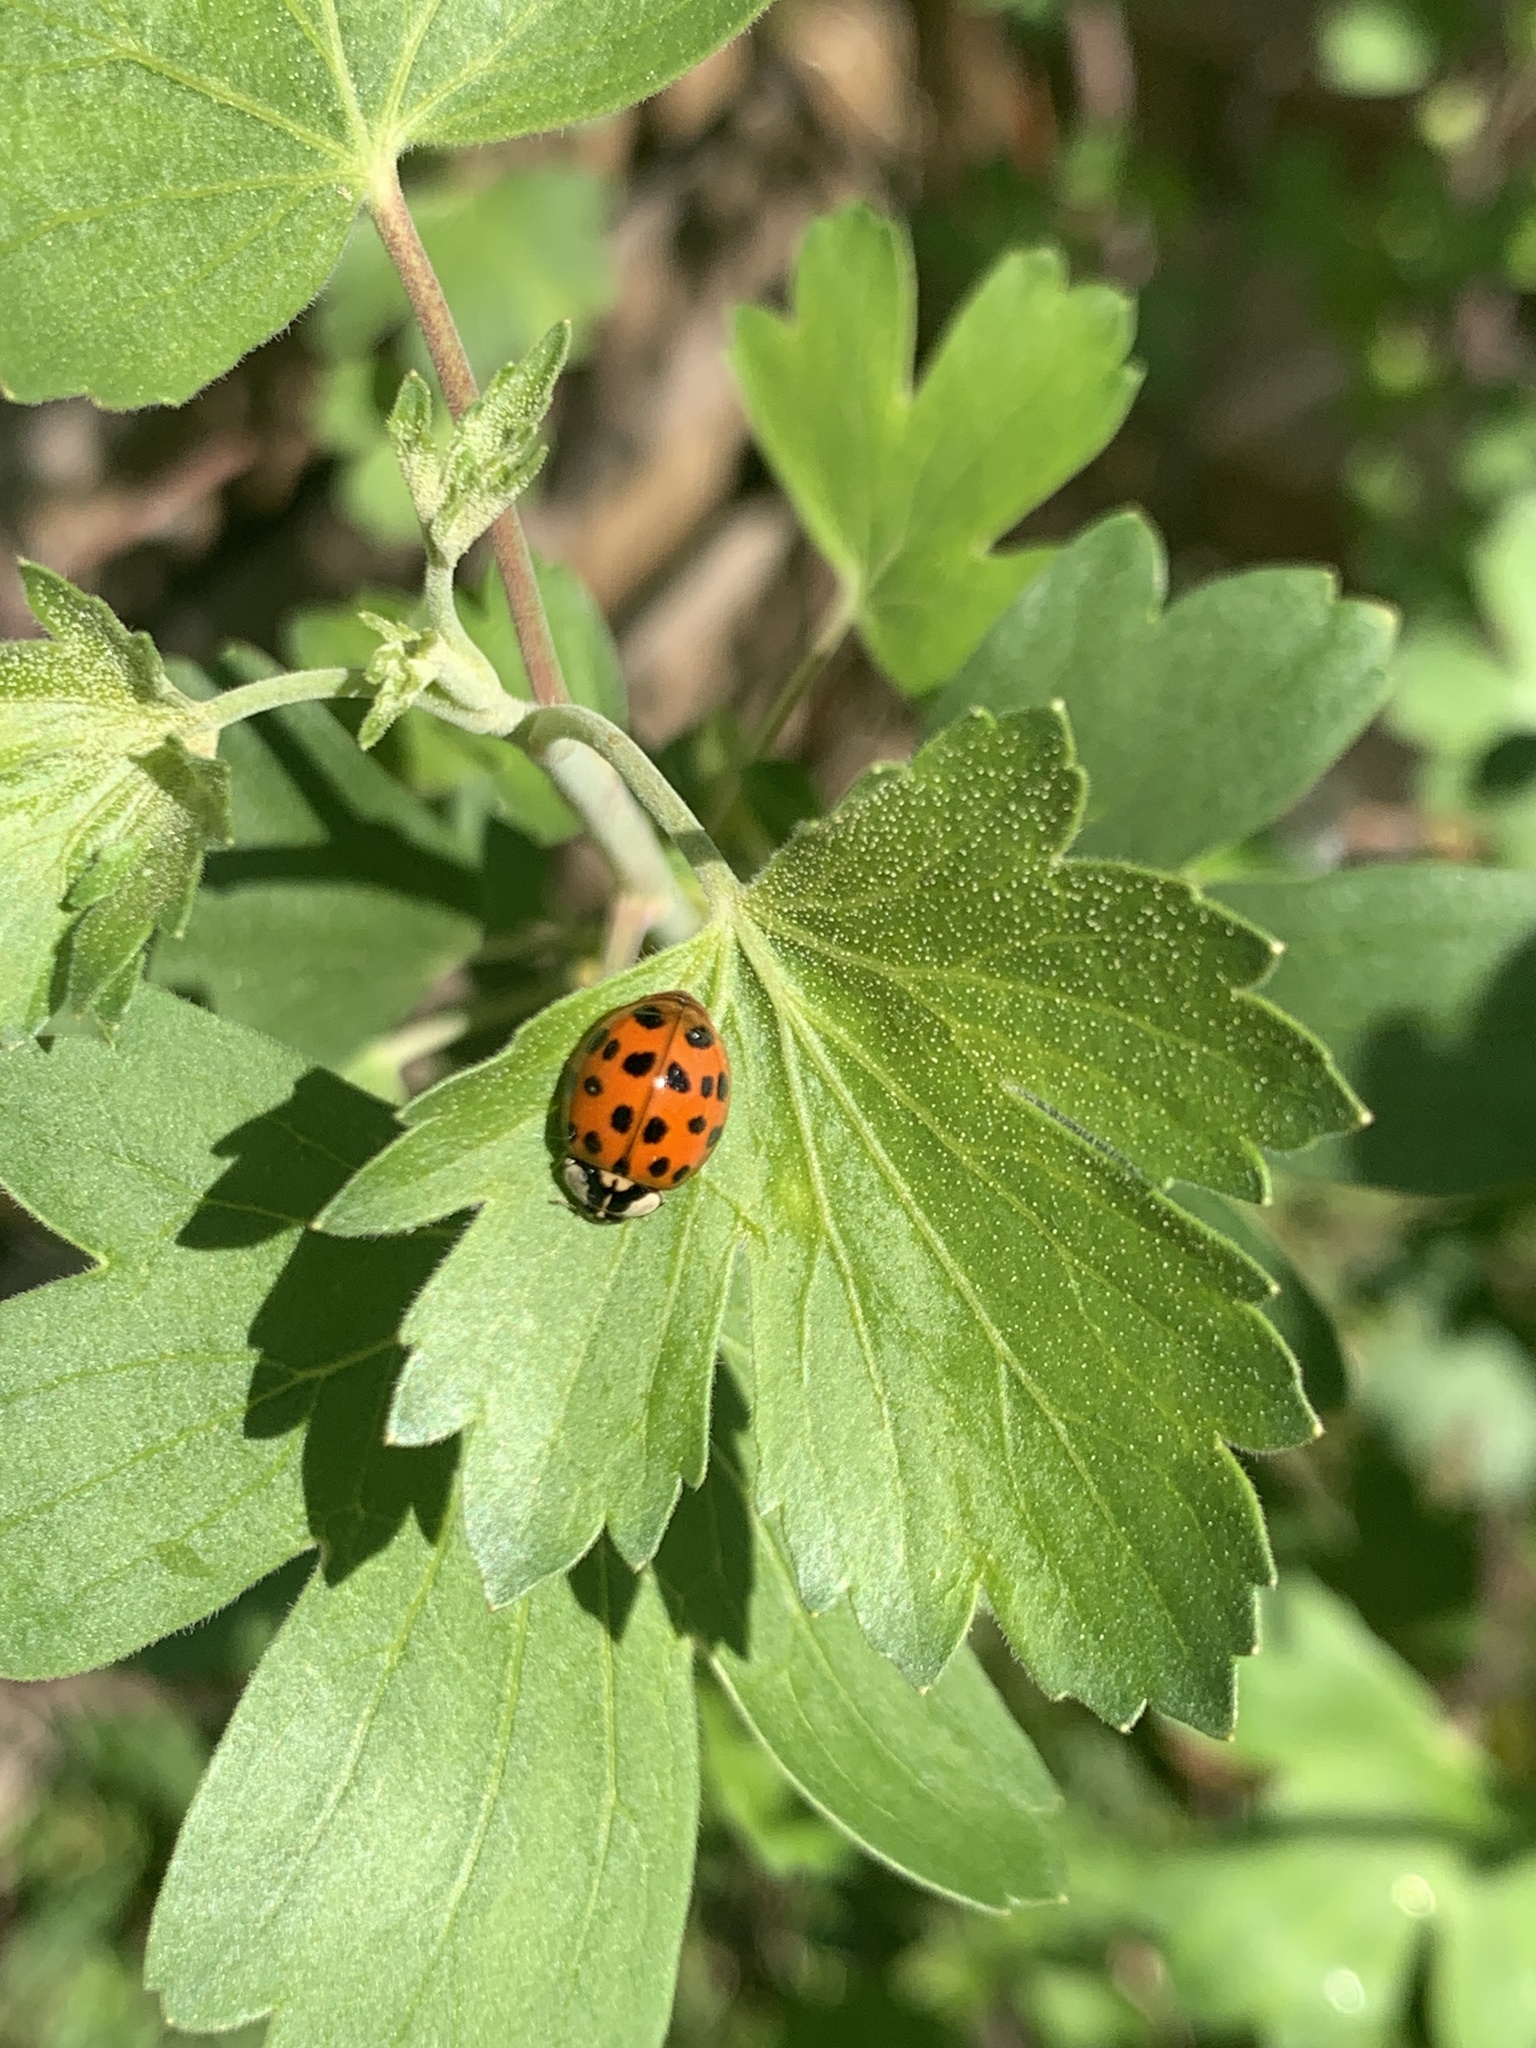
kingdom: Animalia
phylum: Arthropoda
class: Insecta
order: Coleoptera
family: Coccinellidae
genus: Harmonia
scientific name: Harmonia axyridis
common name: Harlequin ladybird
